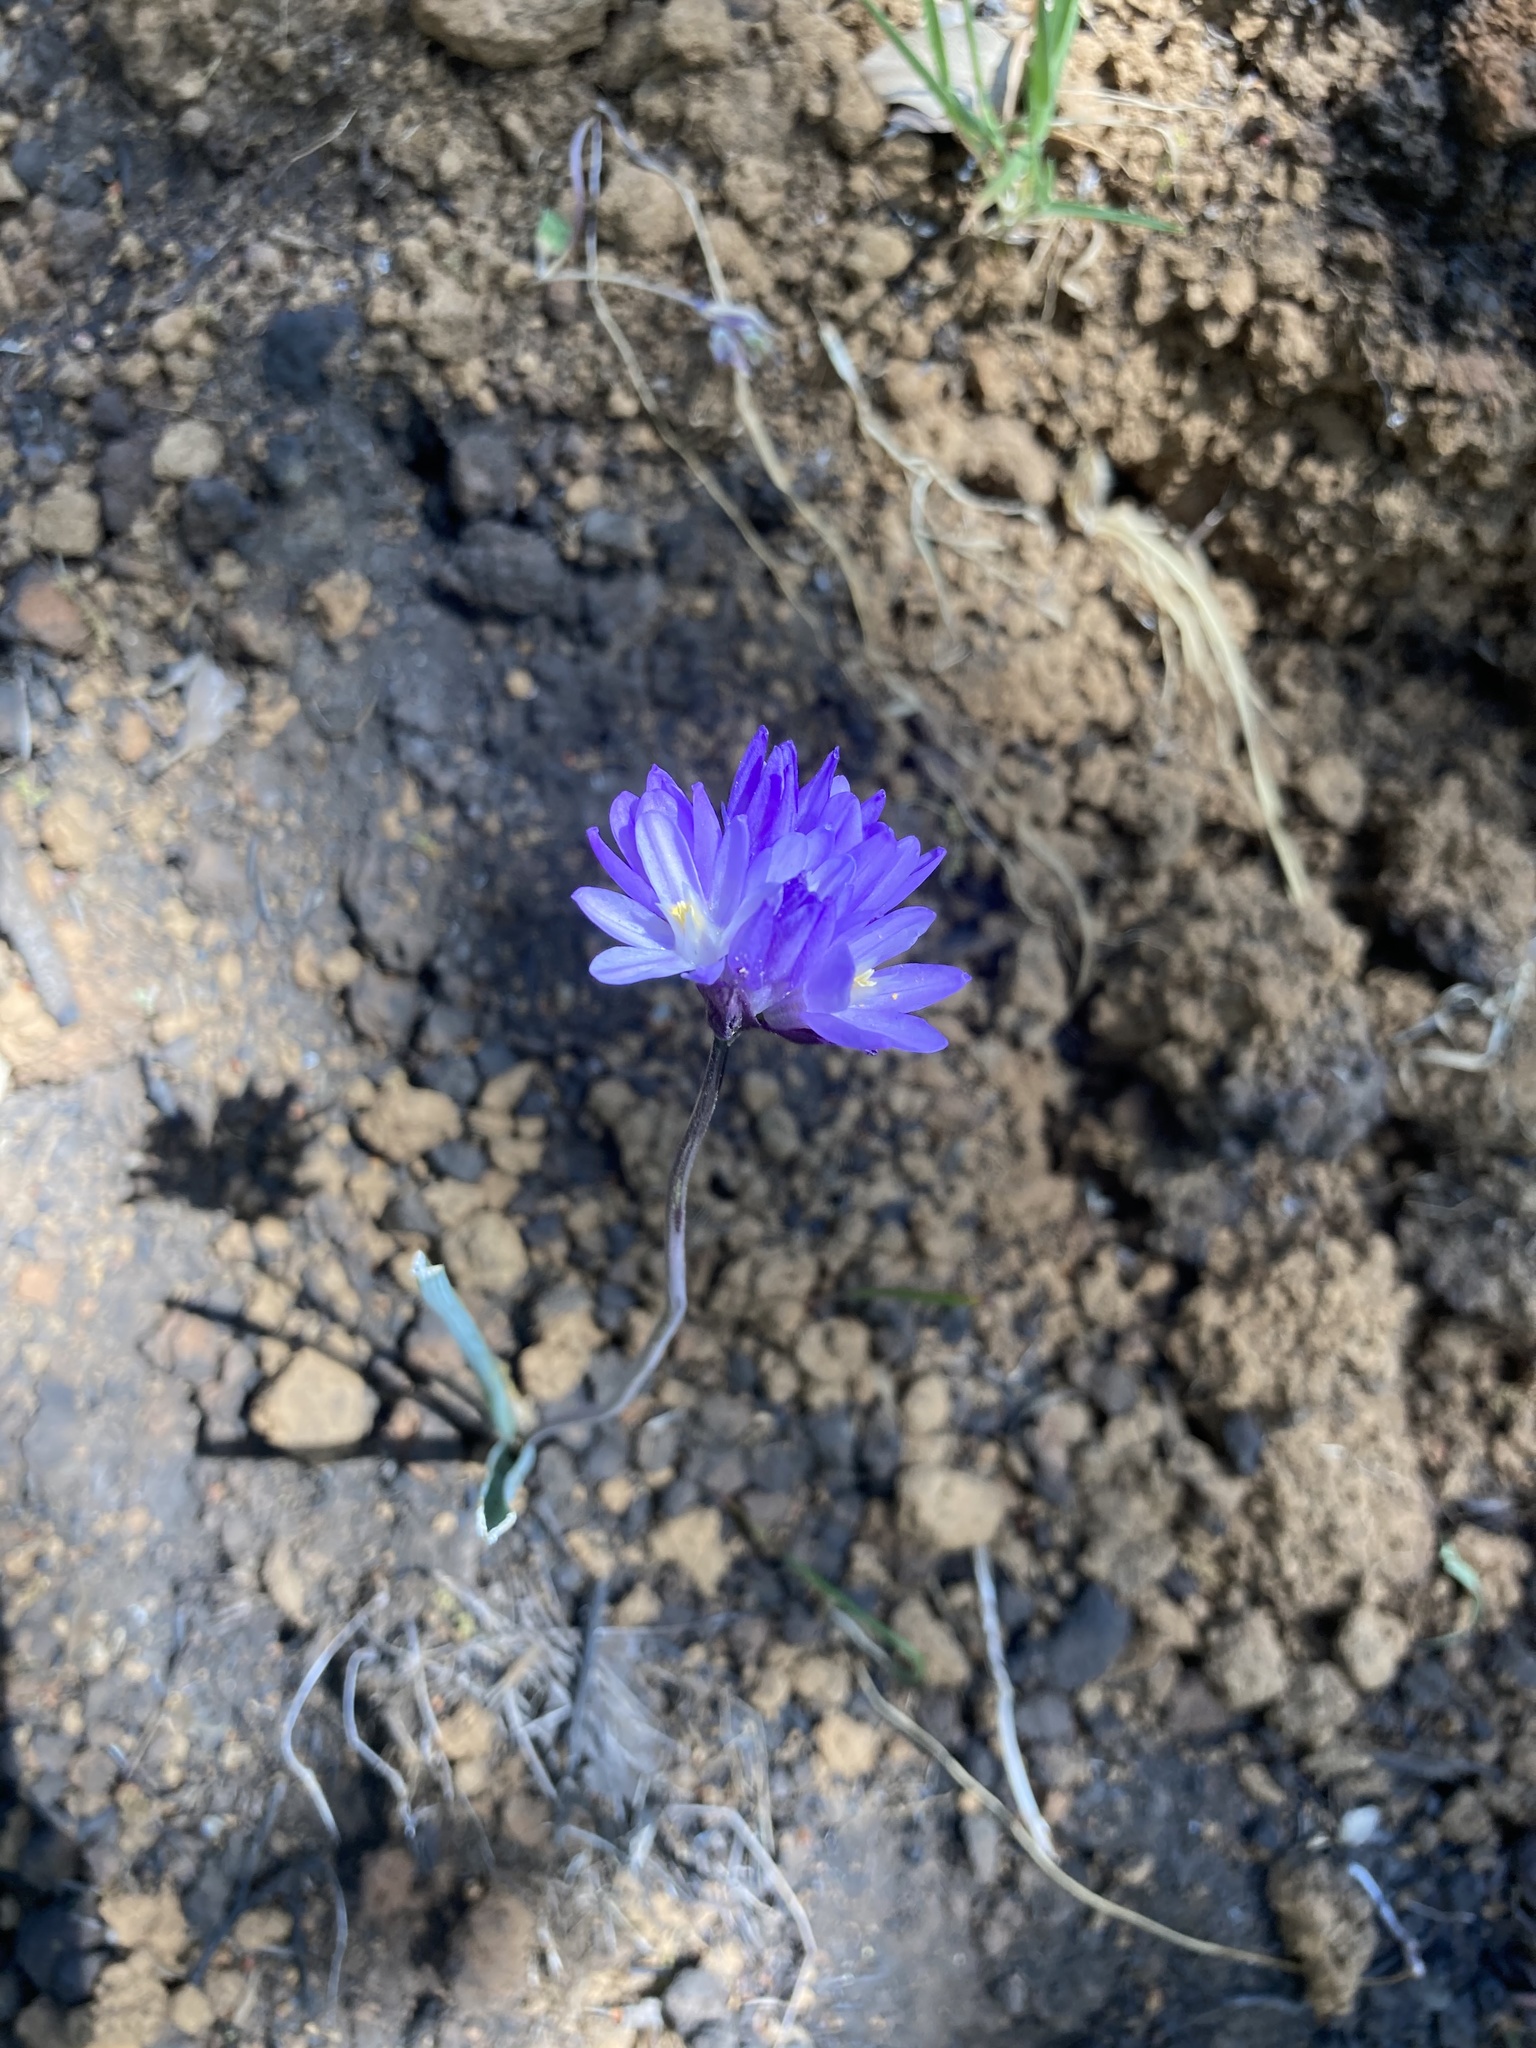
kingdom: Plantae
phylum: Tracheophyta
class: Liliopsida
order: Asparagales
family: Asparagaceae
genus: Dipterostemon
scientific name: Dipterostemon capitatus
